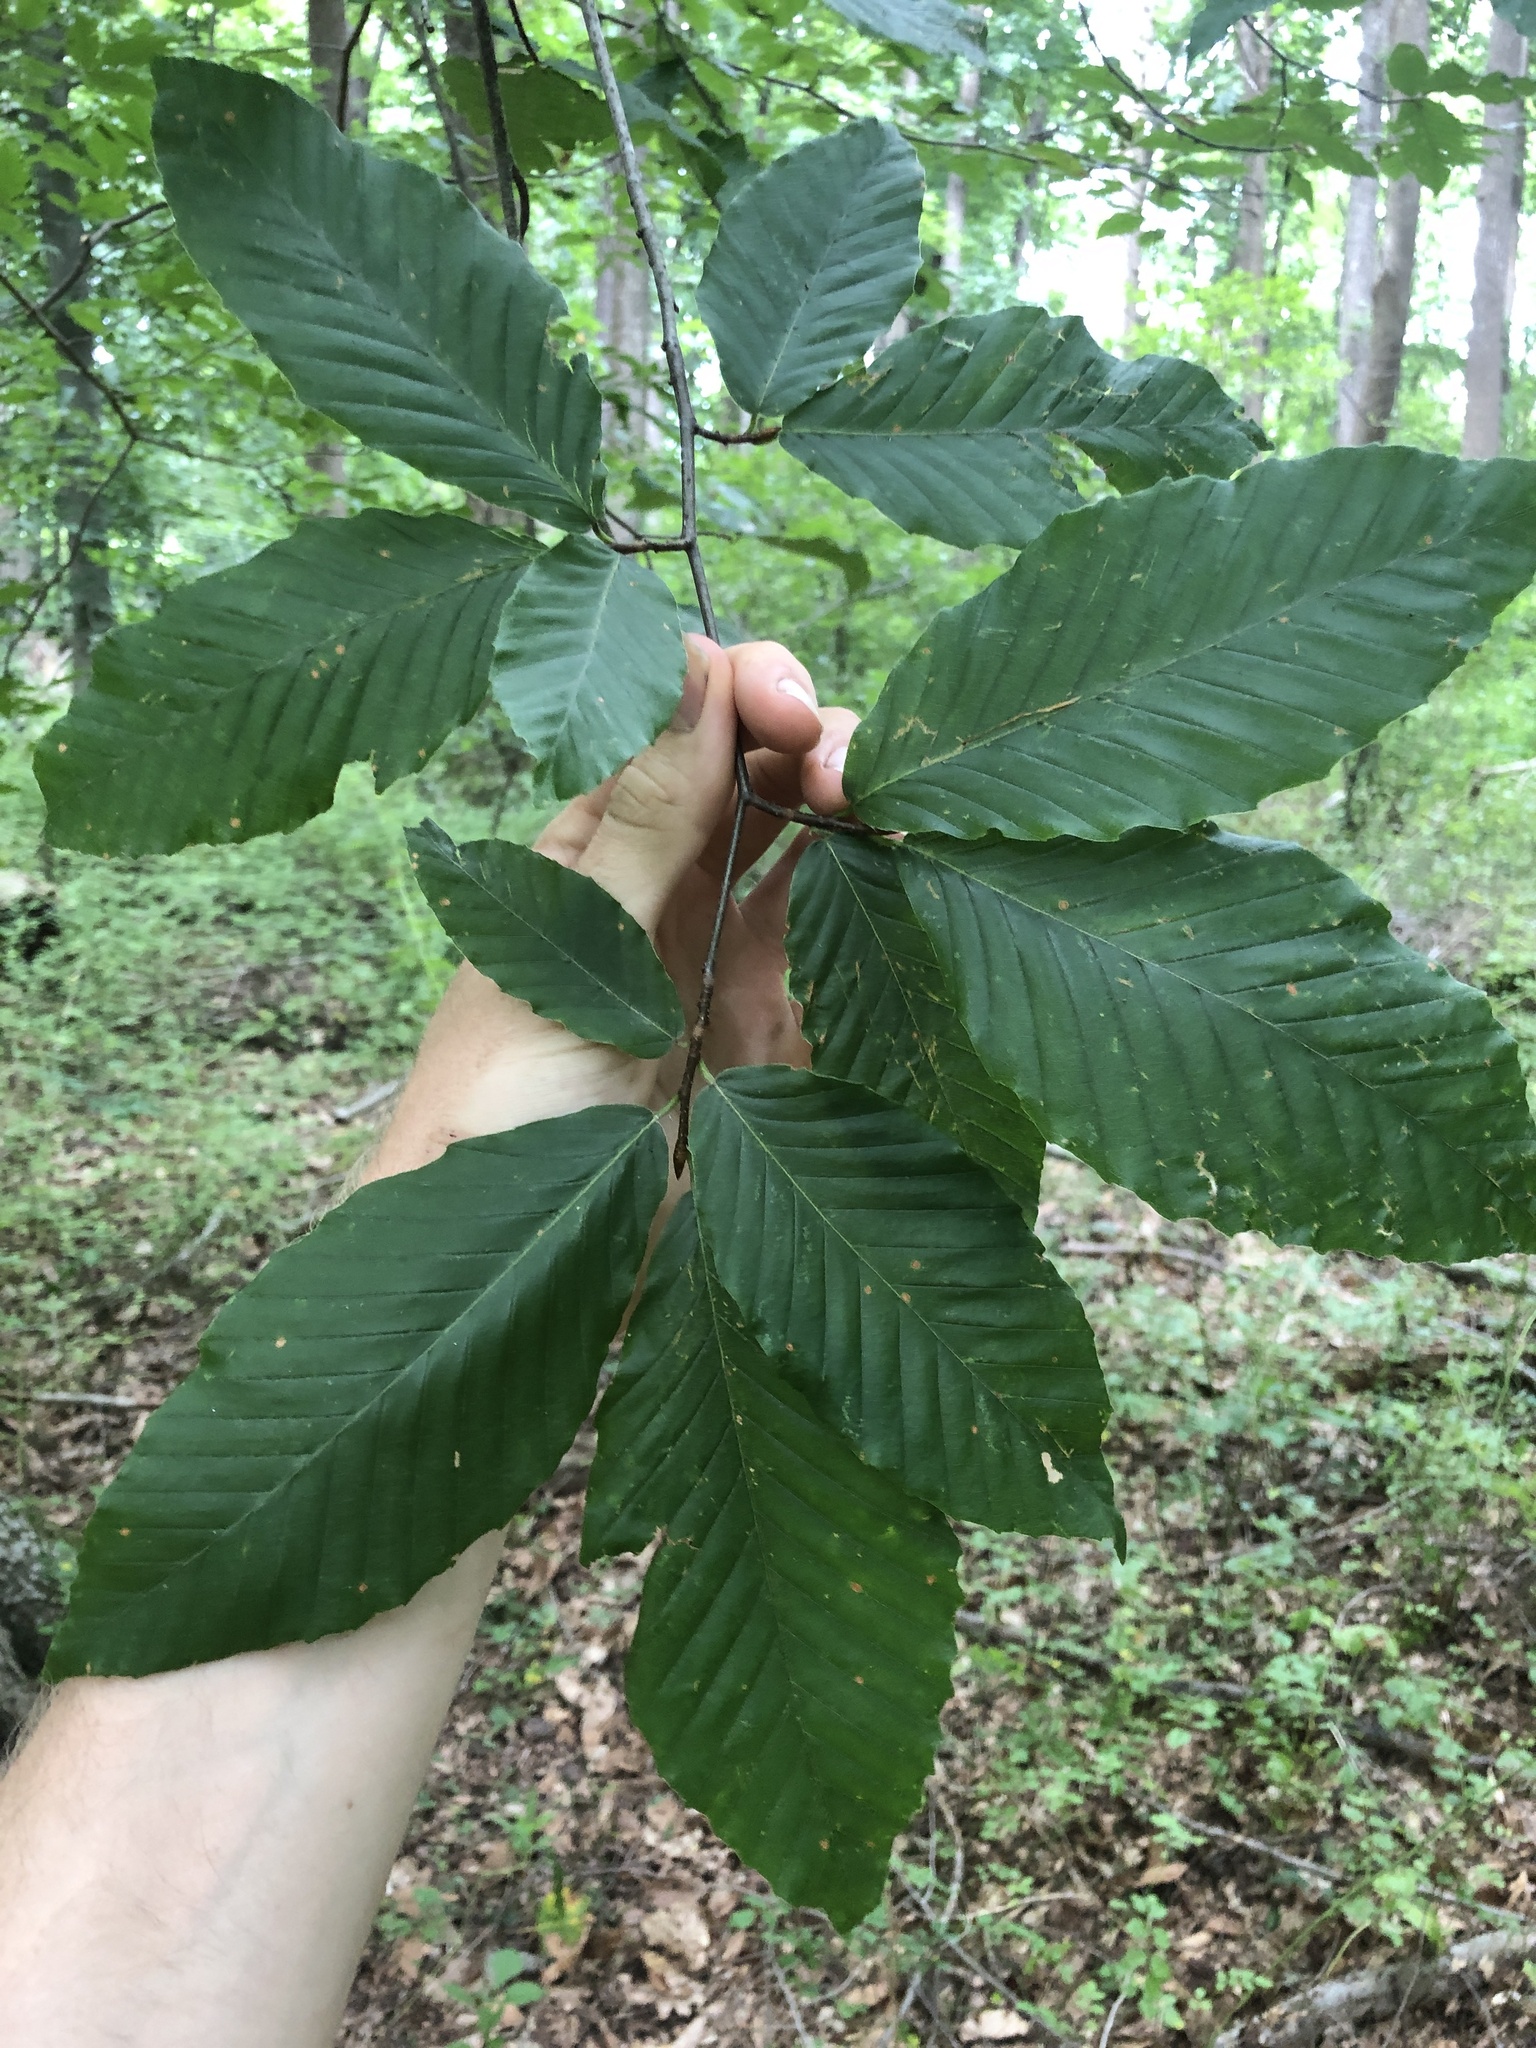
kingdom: Plantae
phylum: Tracheophyta
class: Magnoliopsida
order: Fagales
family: Fagaceae
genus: Fagus
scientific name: Fagus grandifolia
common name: American beech
